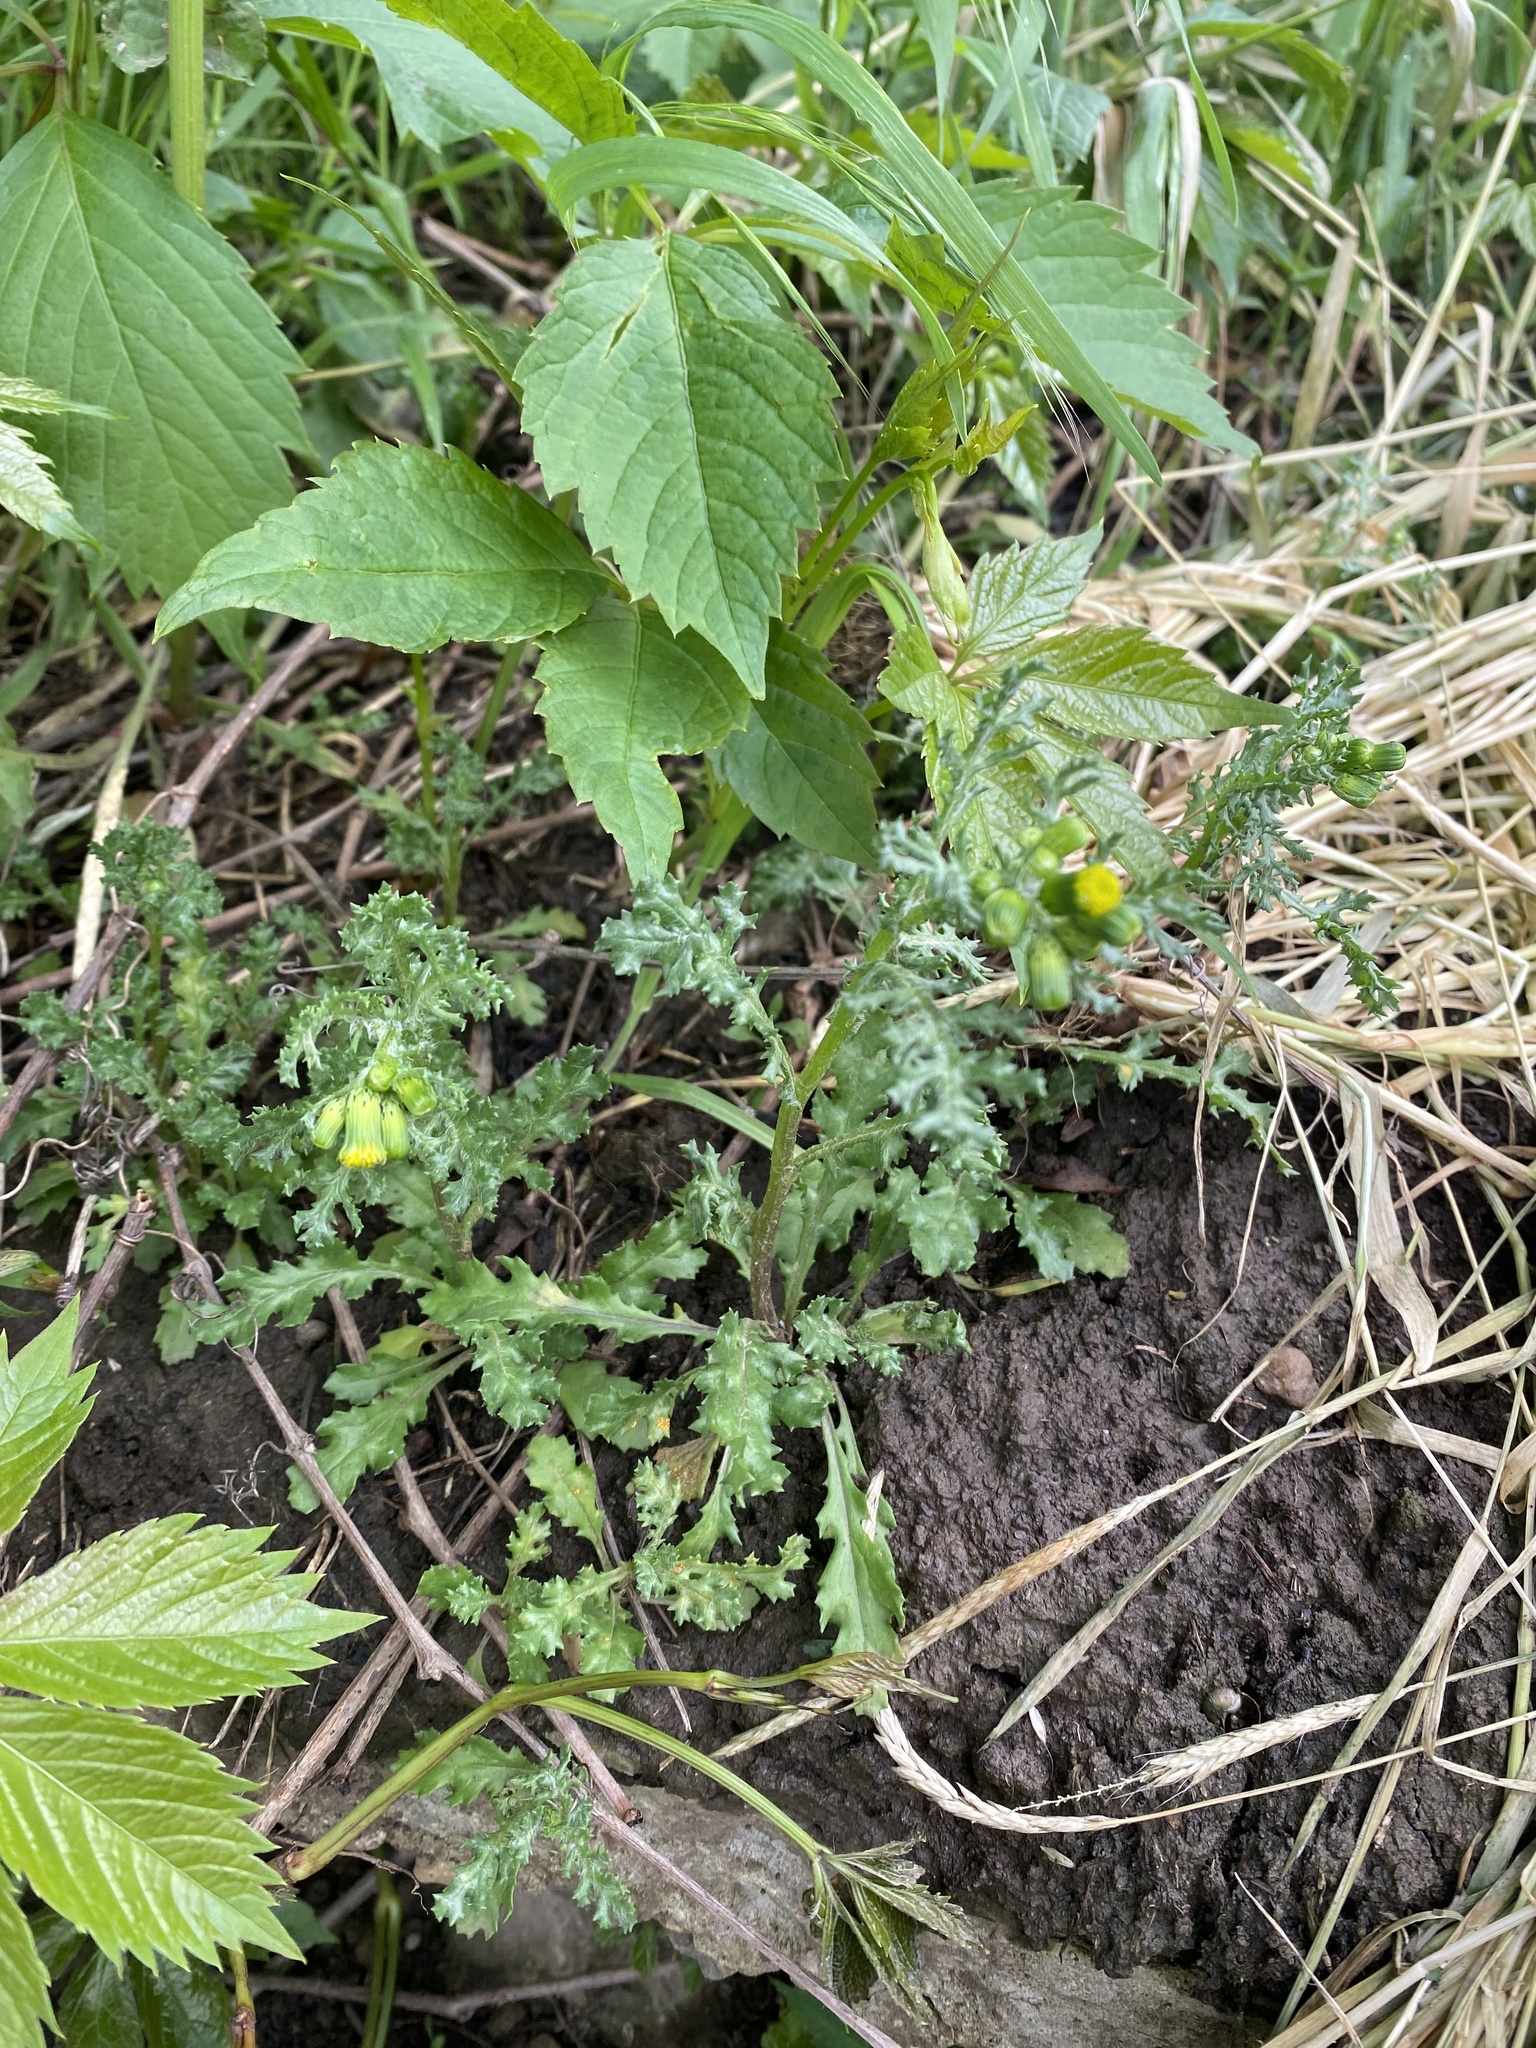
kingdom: Plantae
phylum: Tracheophyta
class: Magnoliopsida
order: Asterales
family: Asteraceae
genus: Senecio
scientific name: Senecio vulgaris
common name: Old-man-in-the-spring
